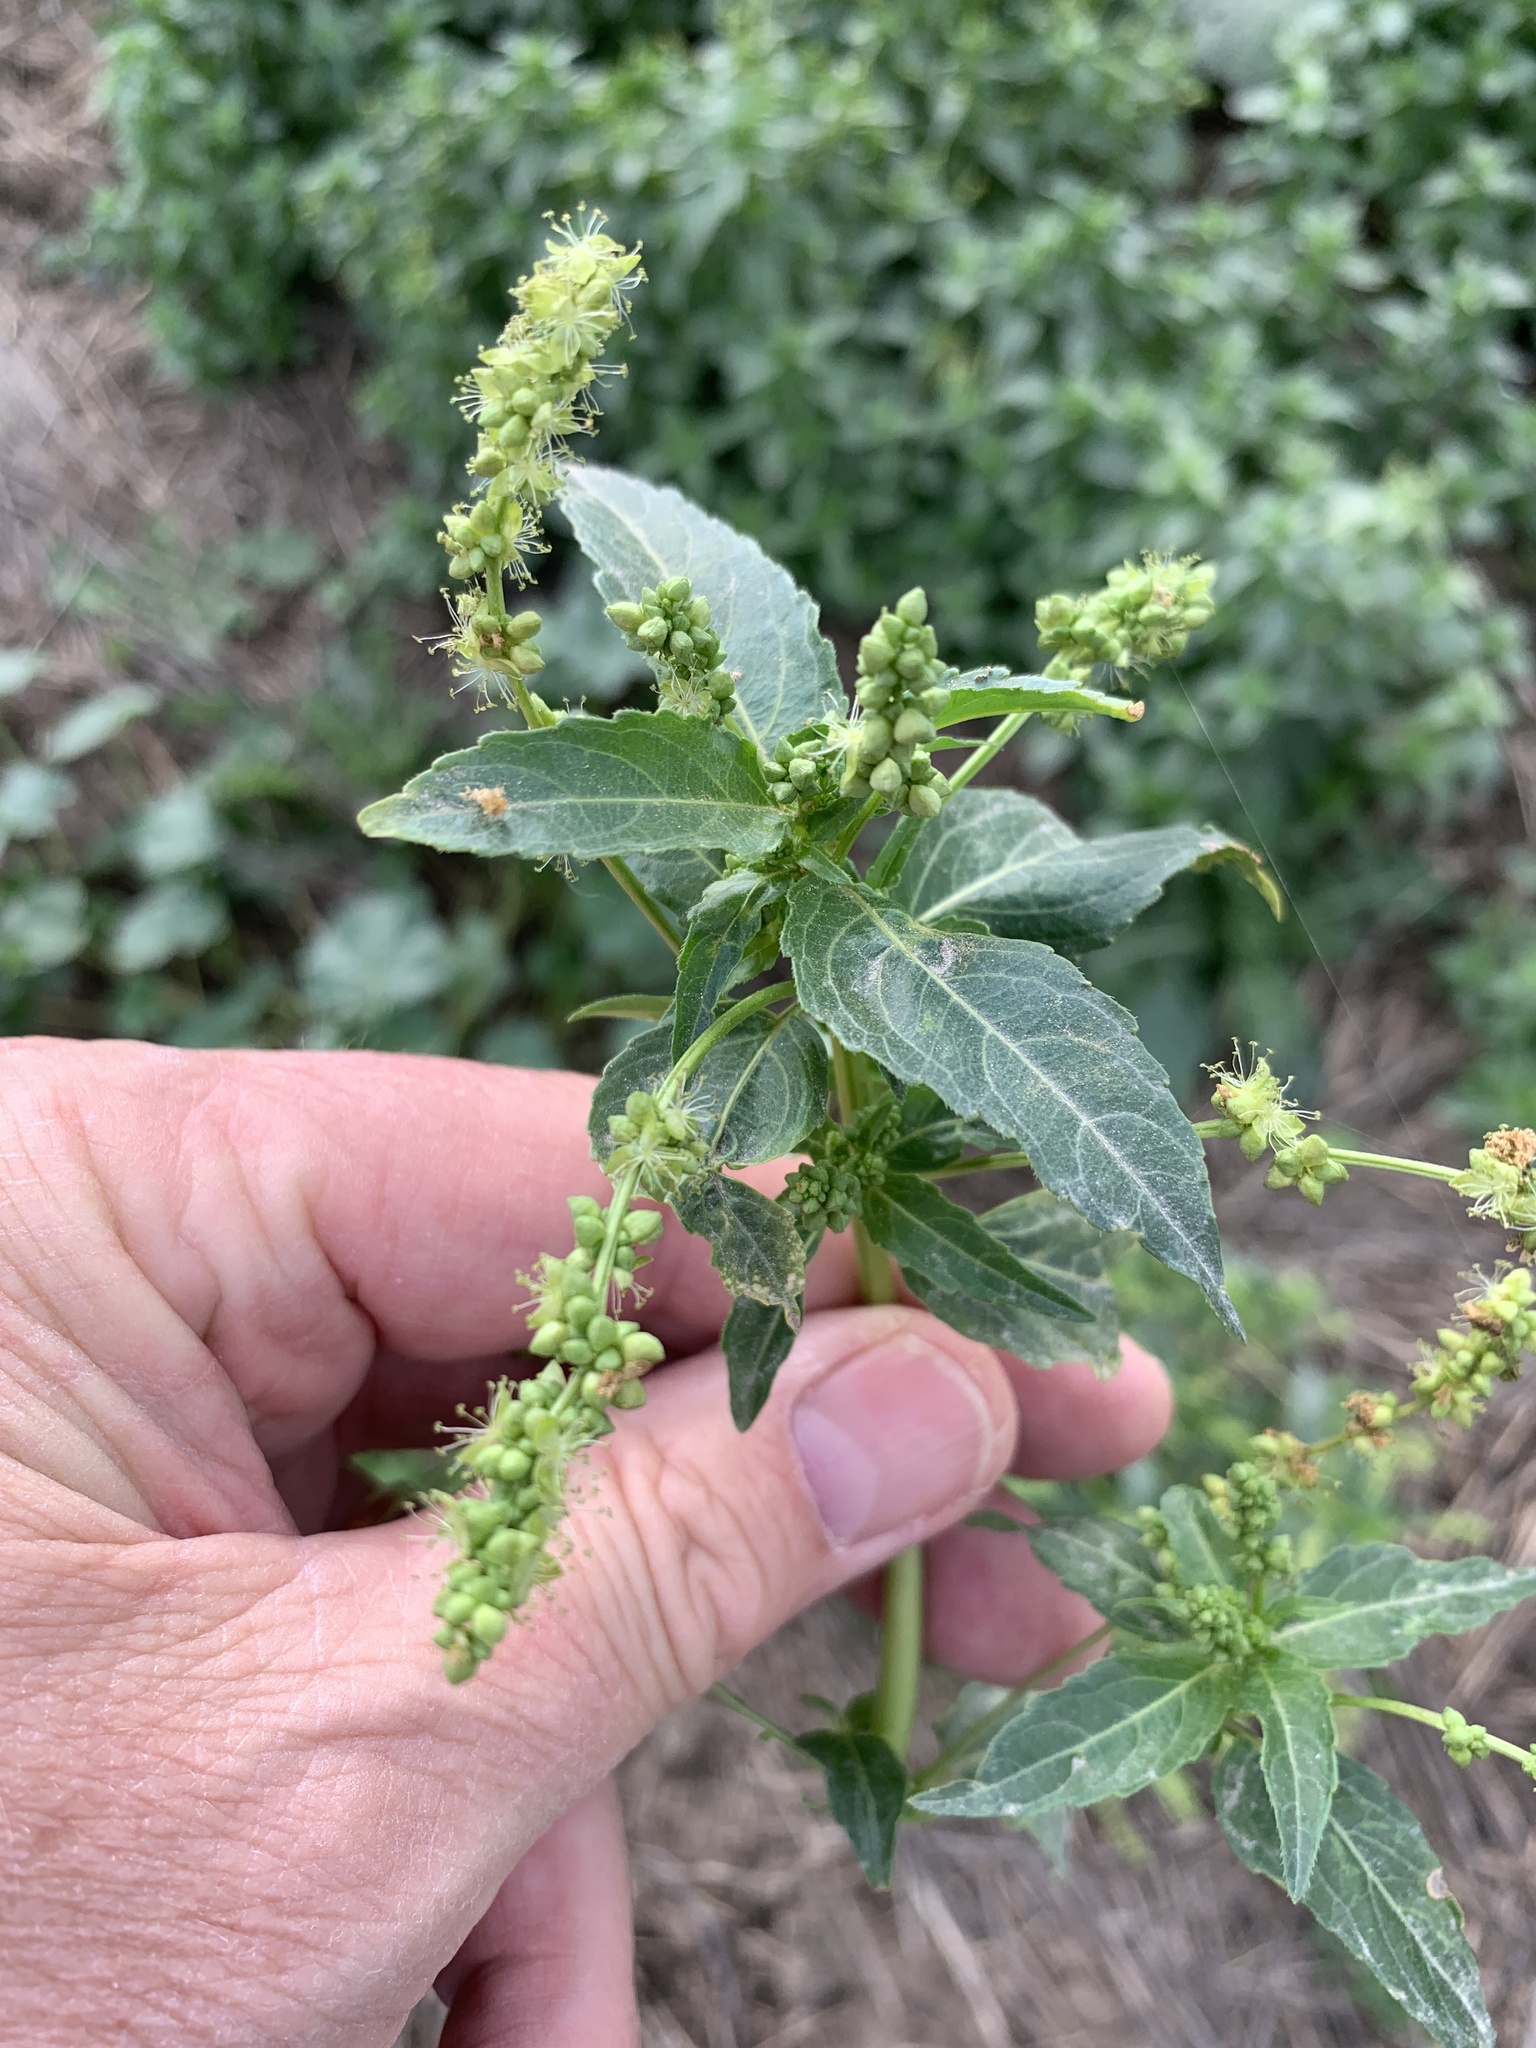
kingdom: Plantae
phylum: Tracheophyta
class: Magnoliopsida
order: Malpighiales
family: Euphorbiaceae
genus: Mercurialis
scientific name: Mercurialis annua
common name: Annual mercury
